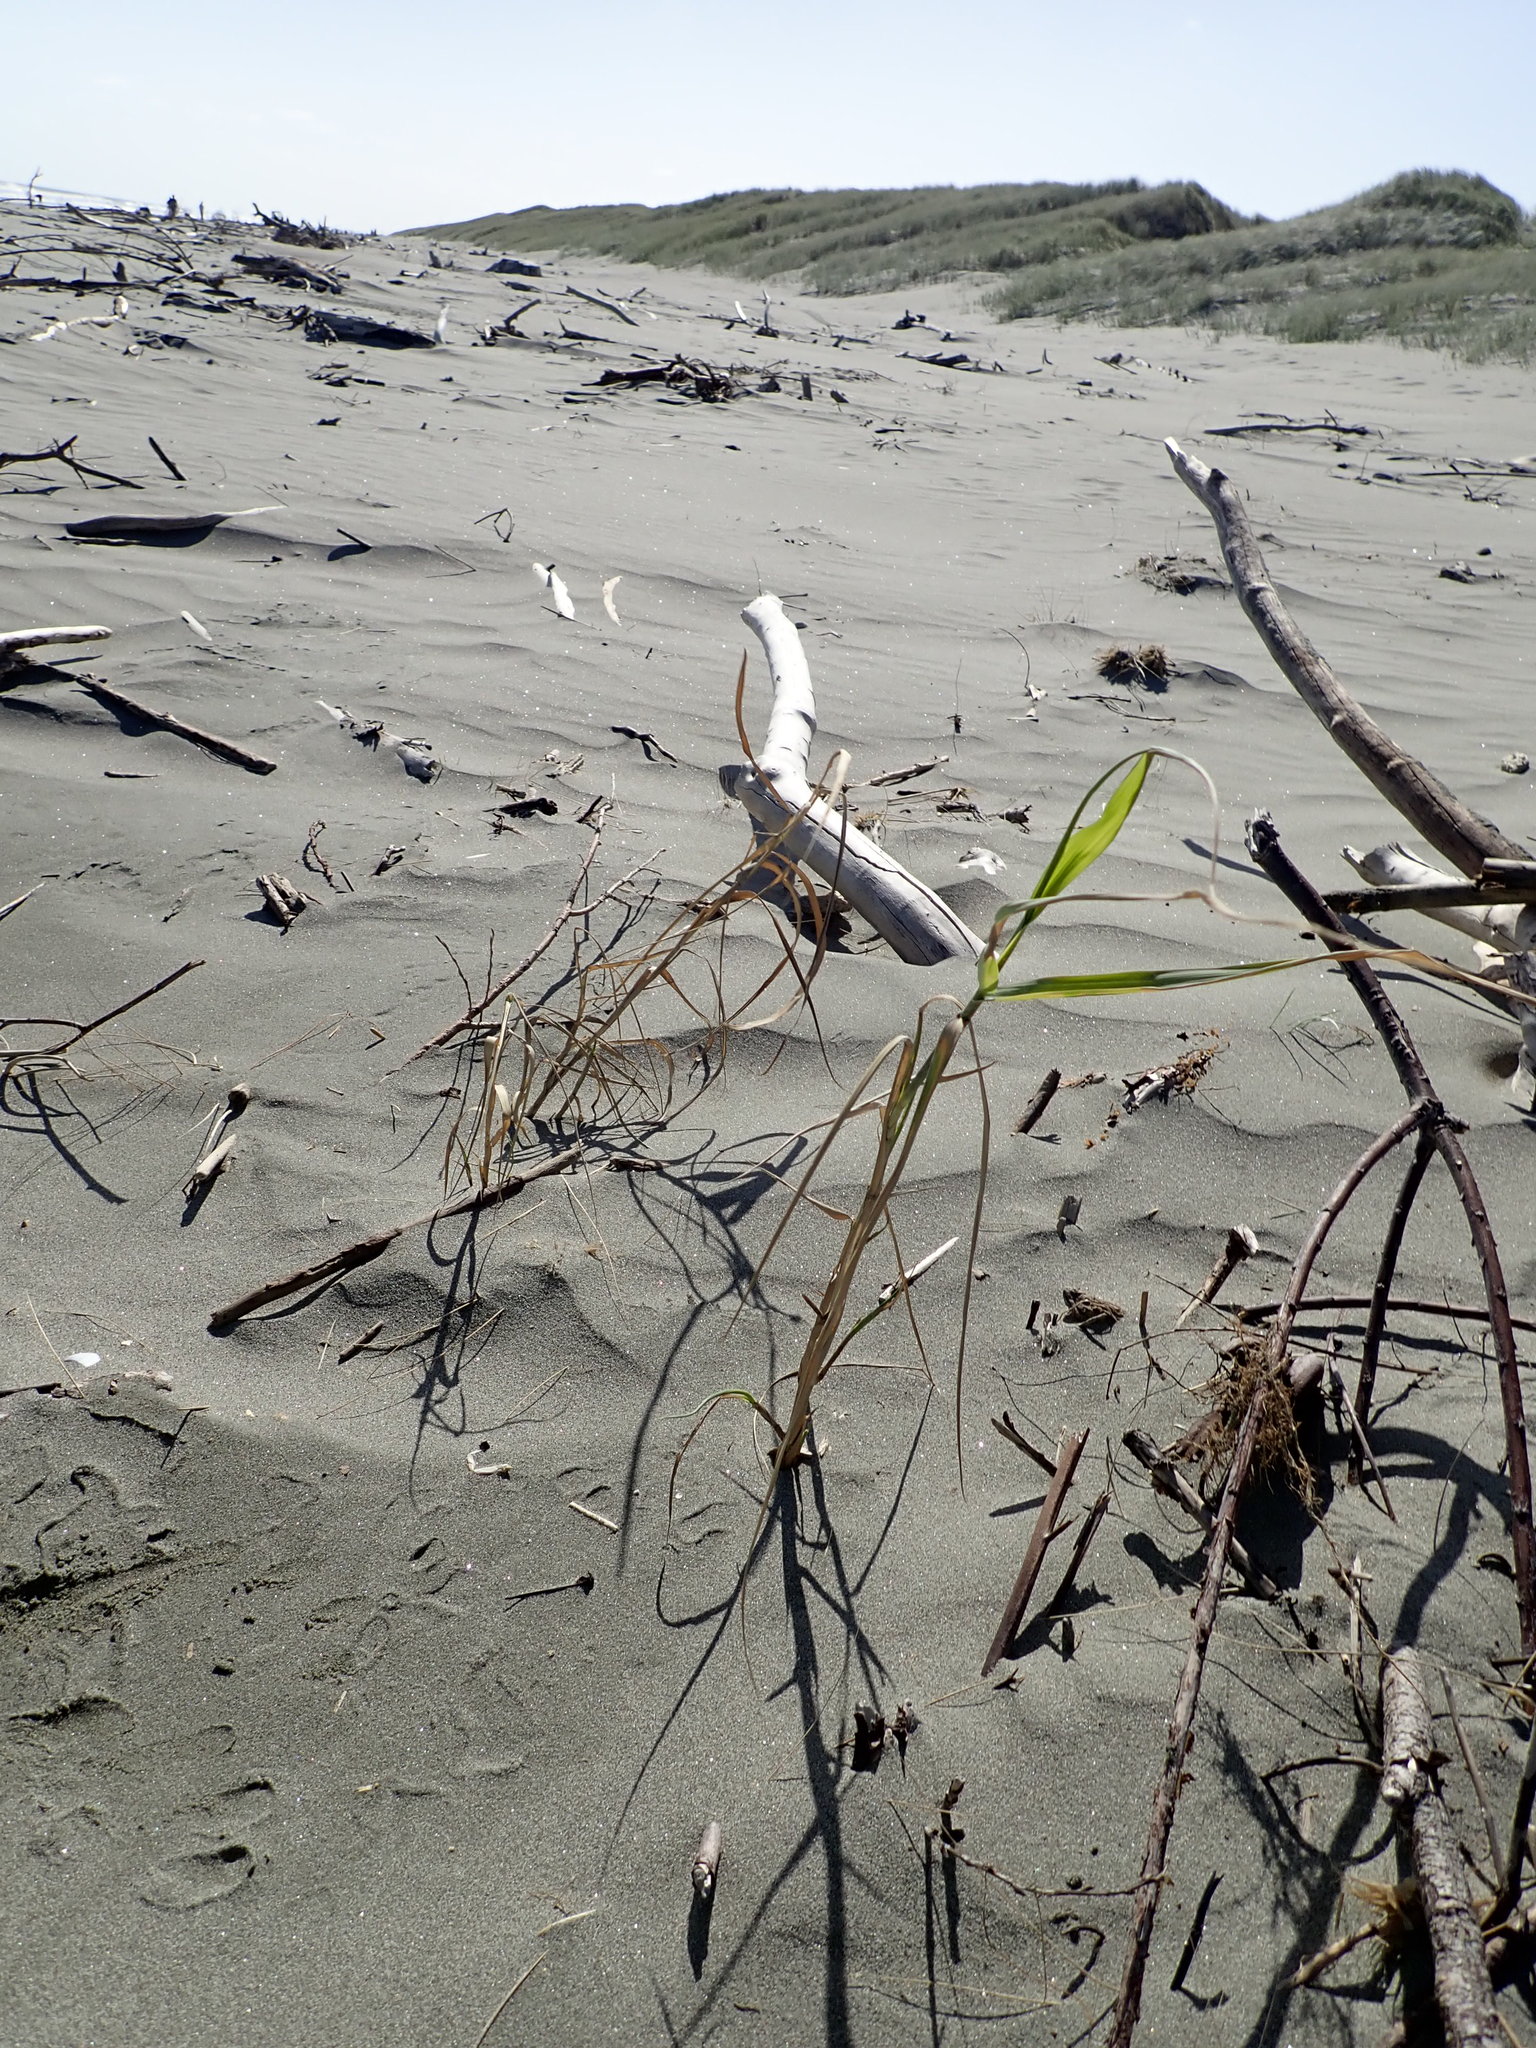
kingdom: Plantae
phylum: Tracheophyta
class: Liliopsida
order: Poales
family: Poaceae
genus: Phragmites
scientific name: Phragmites karka
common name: Tropical reed
